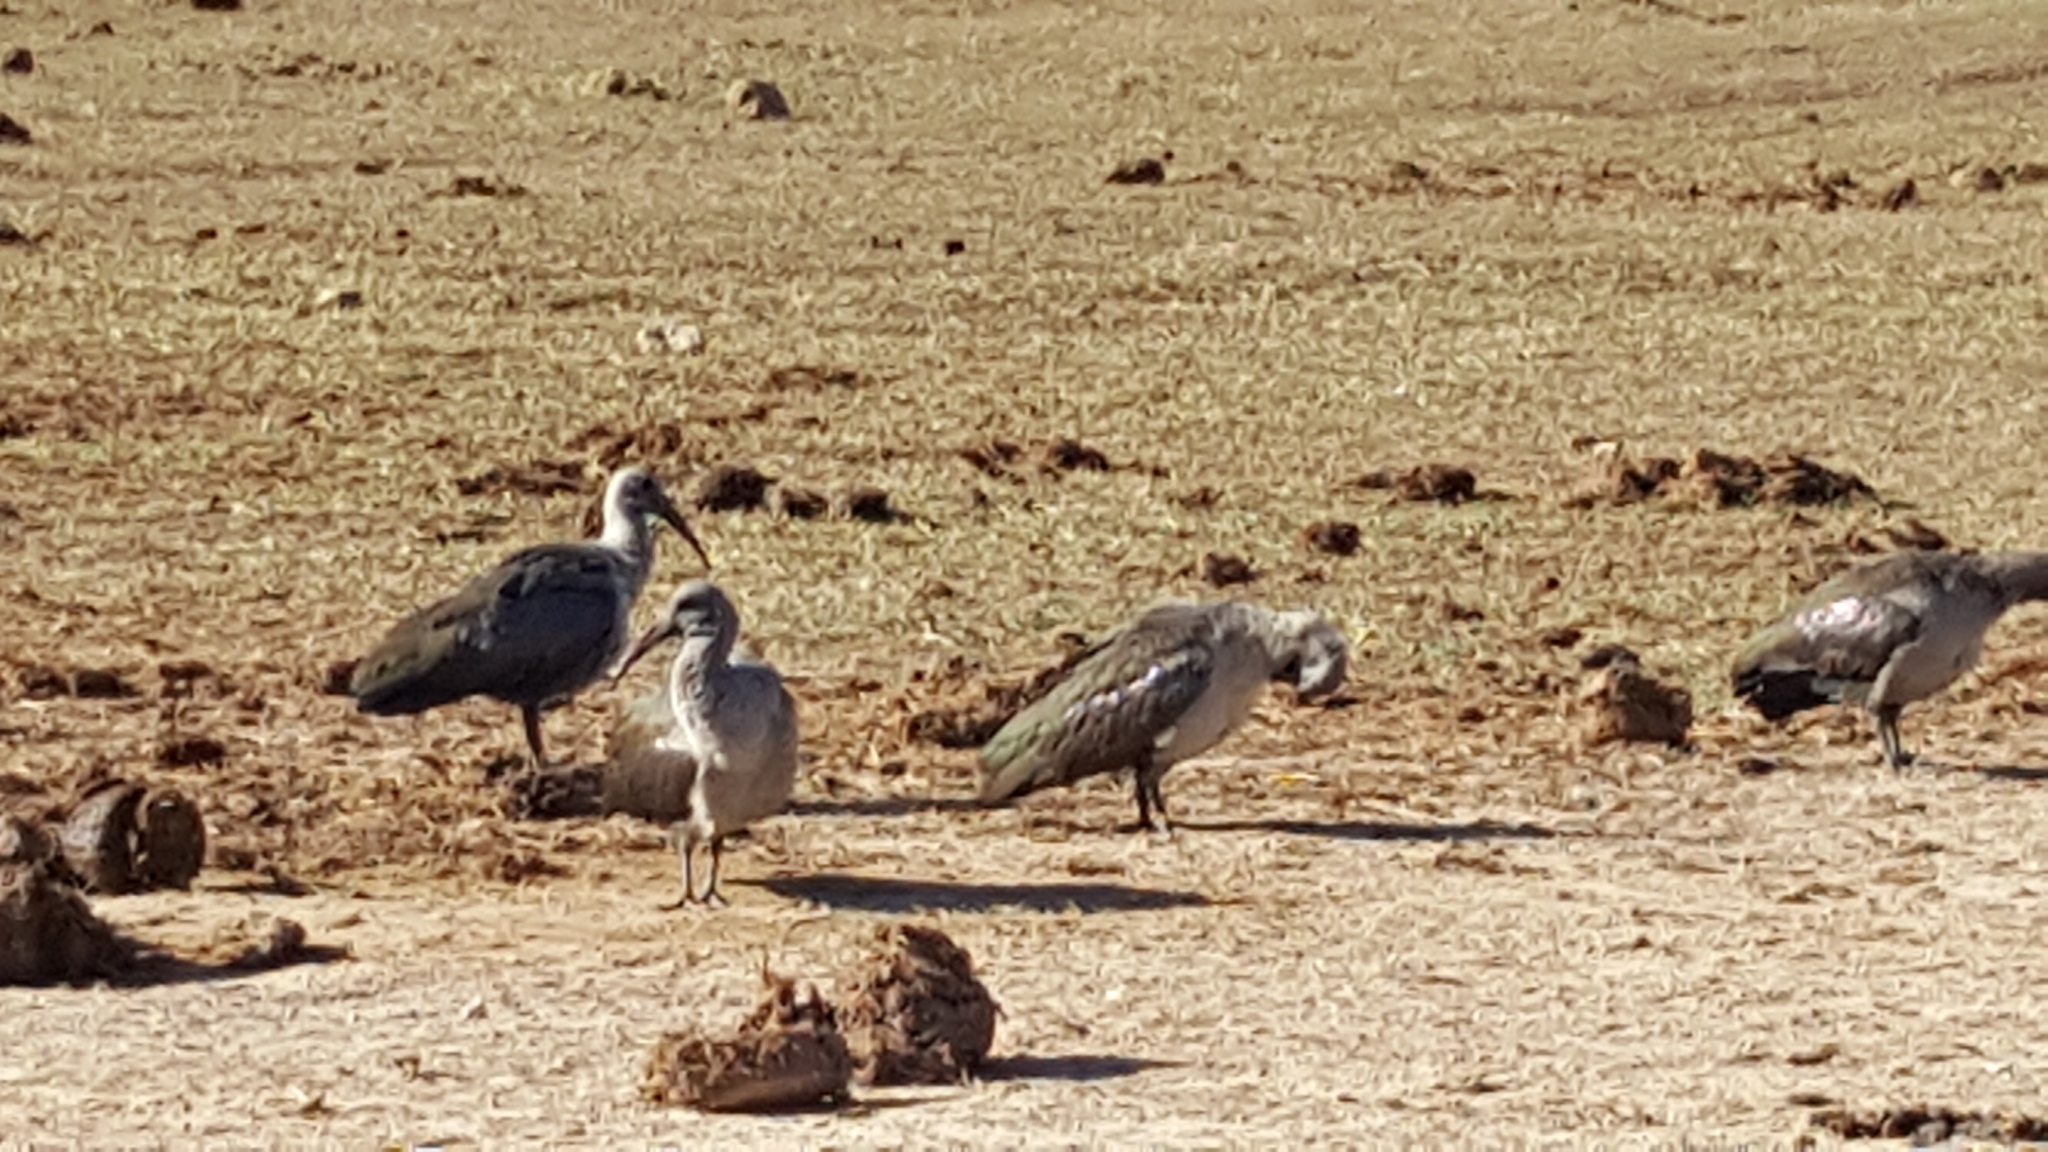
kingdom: Animalia
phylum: Chordata
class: Aves
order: Pelecaniformes
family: Threskiornithidae
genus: Bostrychia
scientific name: Bostrychia hagedash
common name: Hadada ibis
